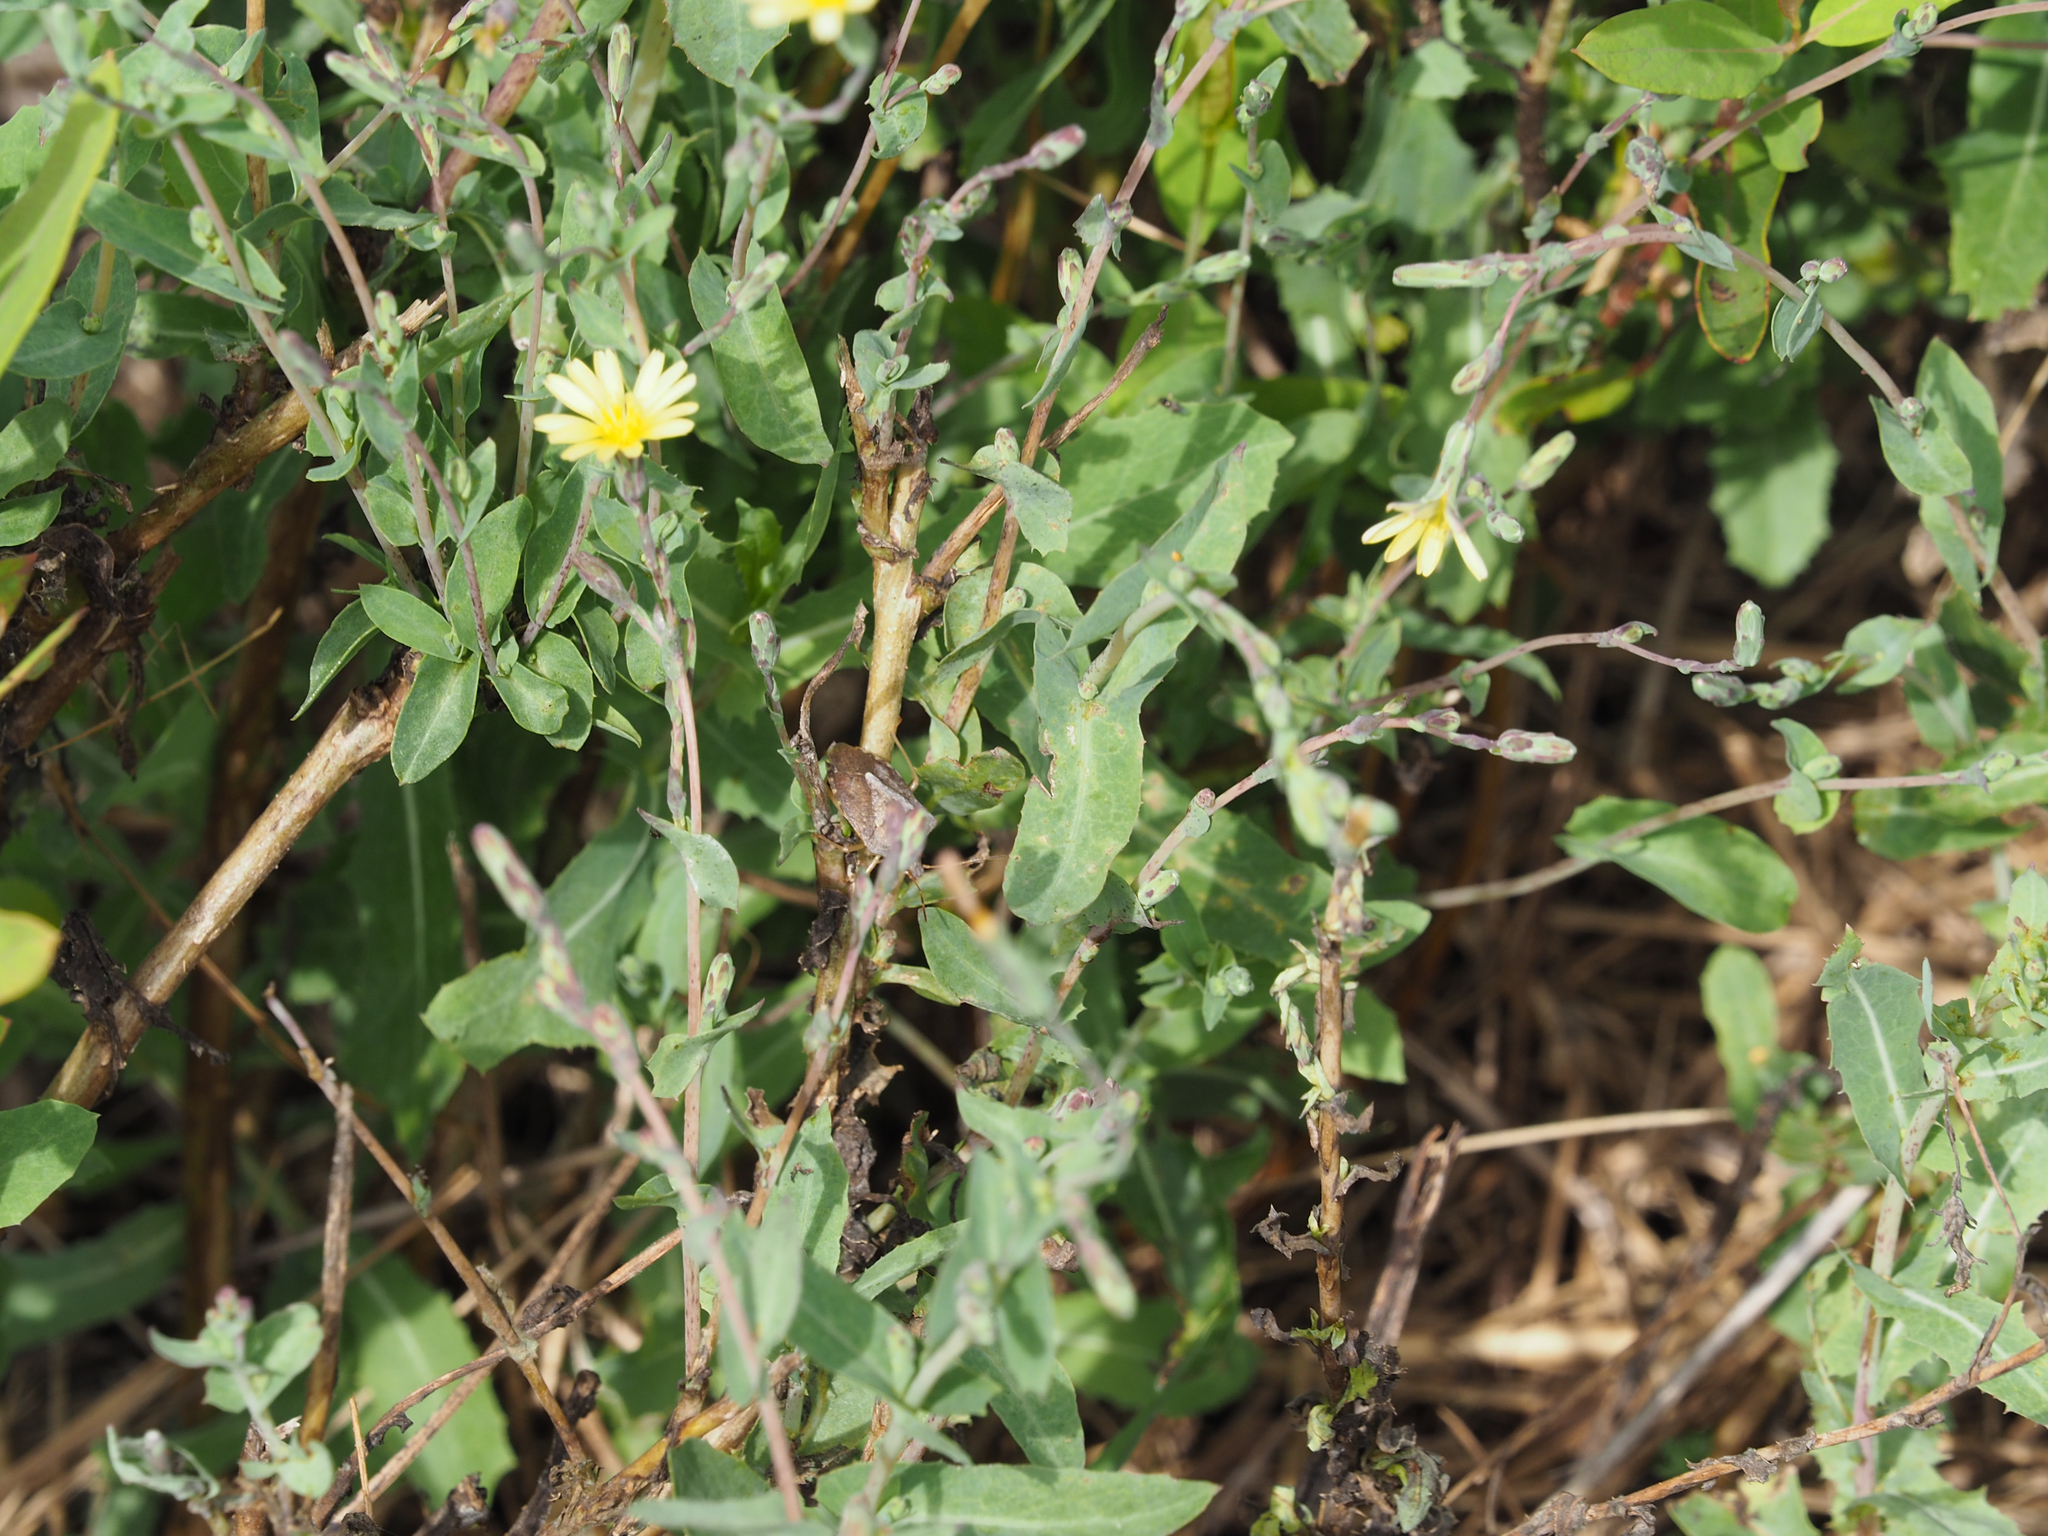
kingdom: Plantae
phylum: Tracheophyta
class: Magnoliopsida
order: Asterales
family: Asteraceae
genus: Lactuca
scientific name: Lactuca serriola
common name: Prickly lettuce
